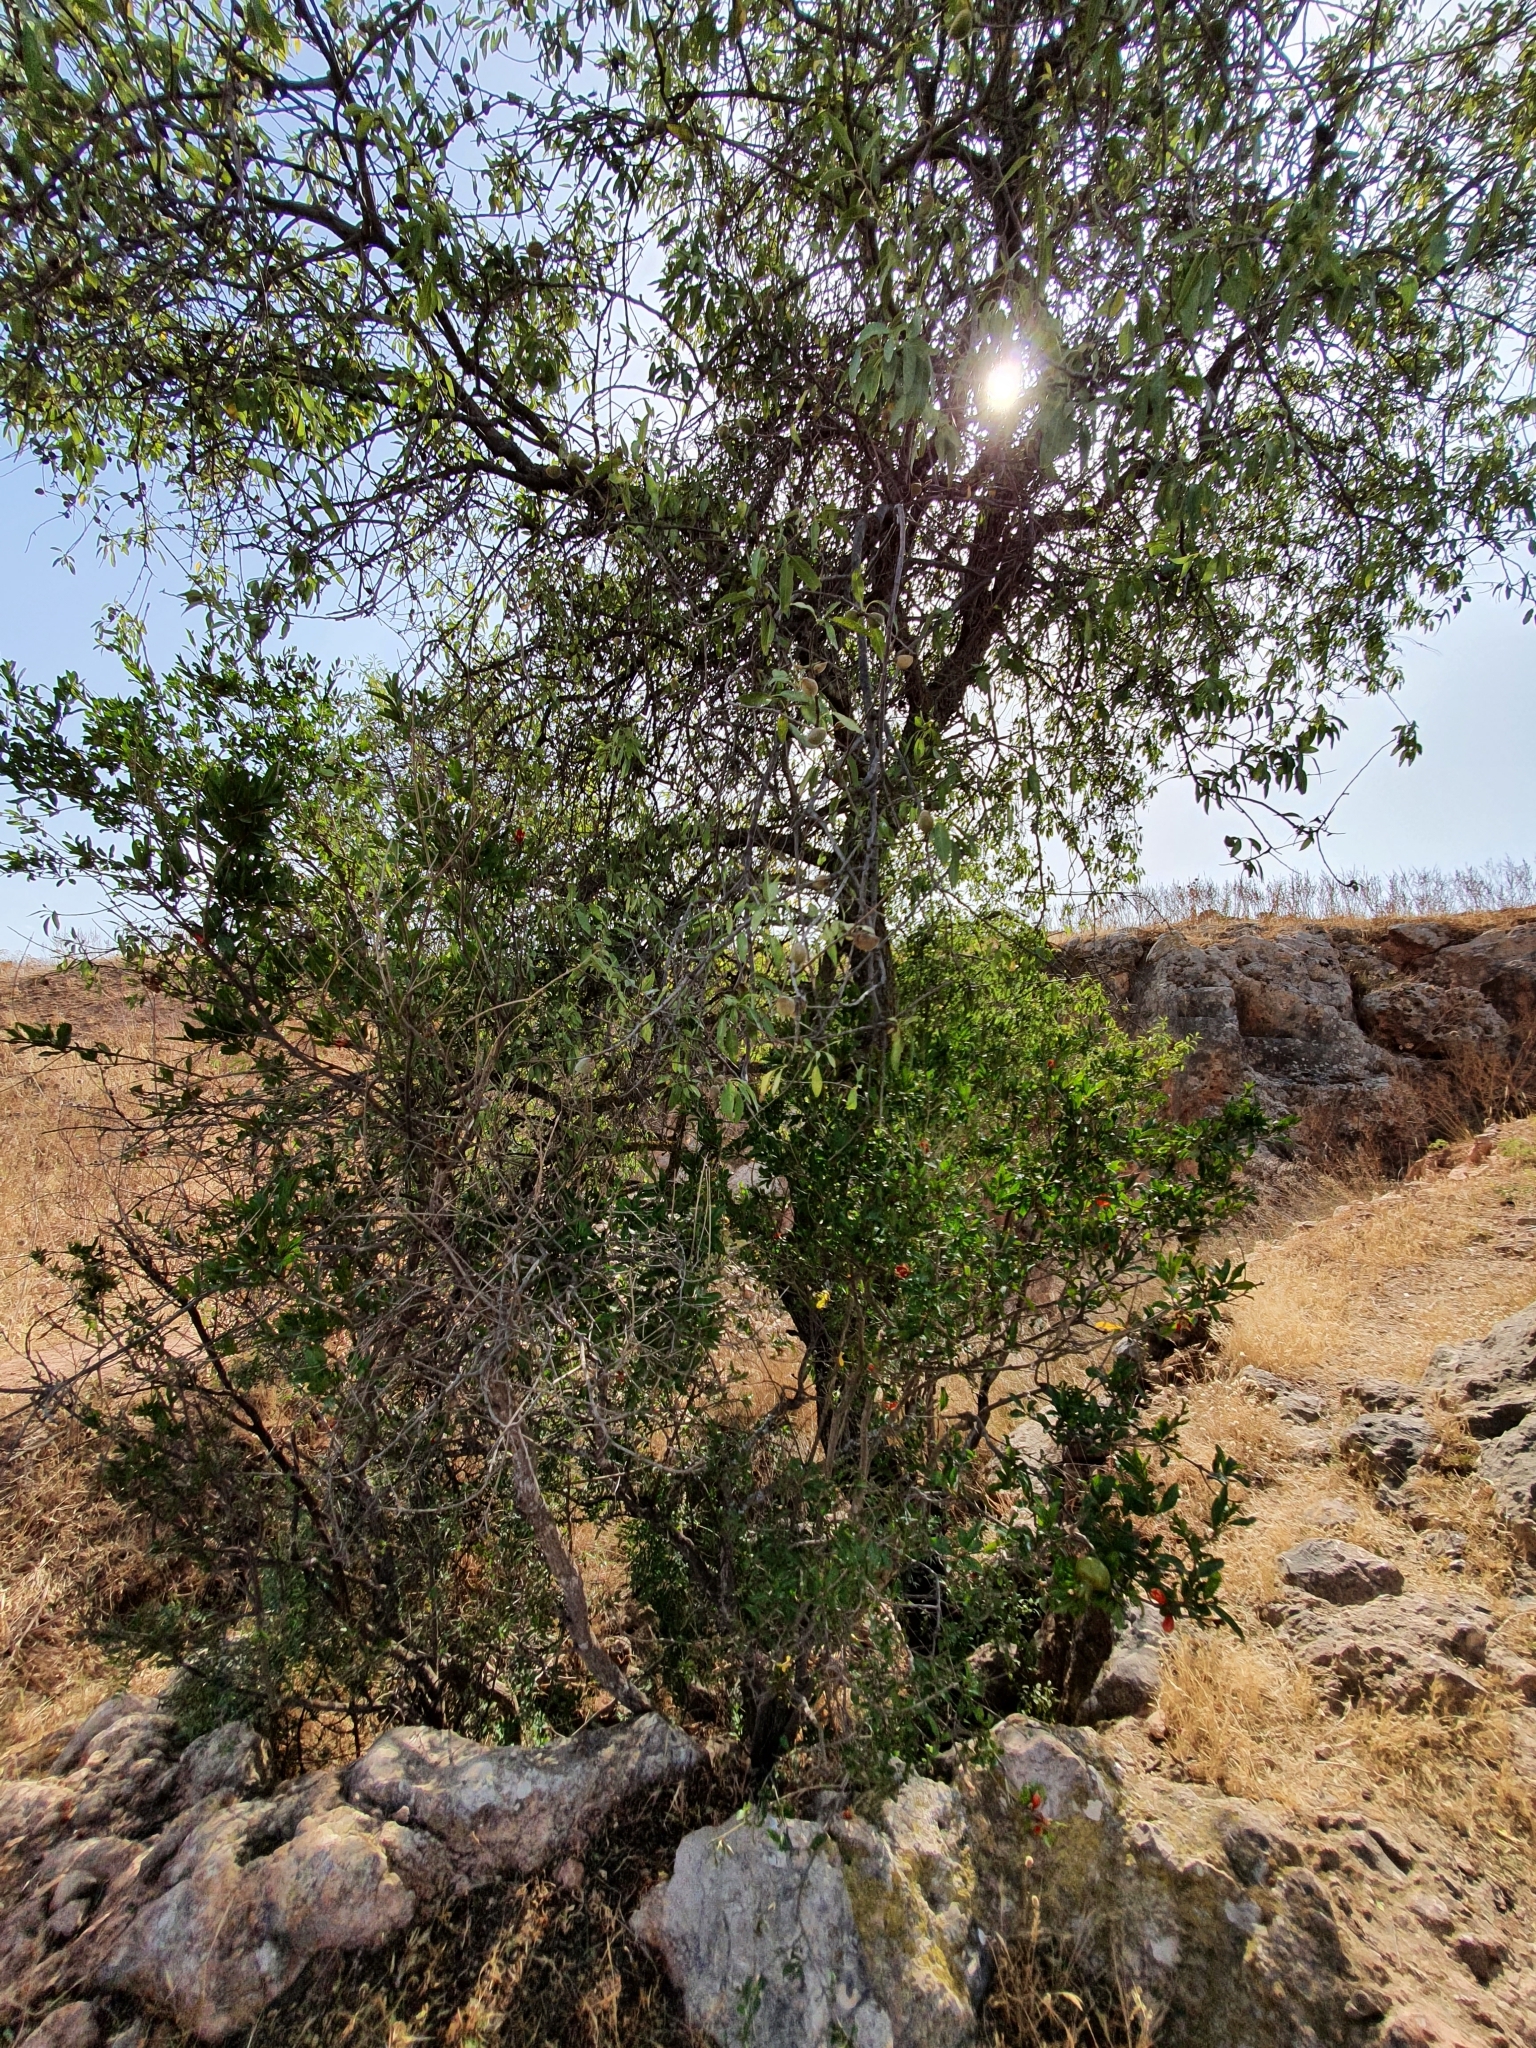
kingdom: Plantae
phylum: Tracheophyta
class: Magnoliopsida
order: Myrtales
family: Lythraceae
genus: Punica
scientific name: Punica granatum
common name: Pomegranate
